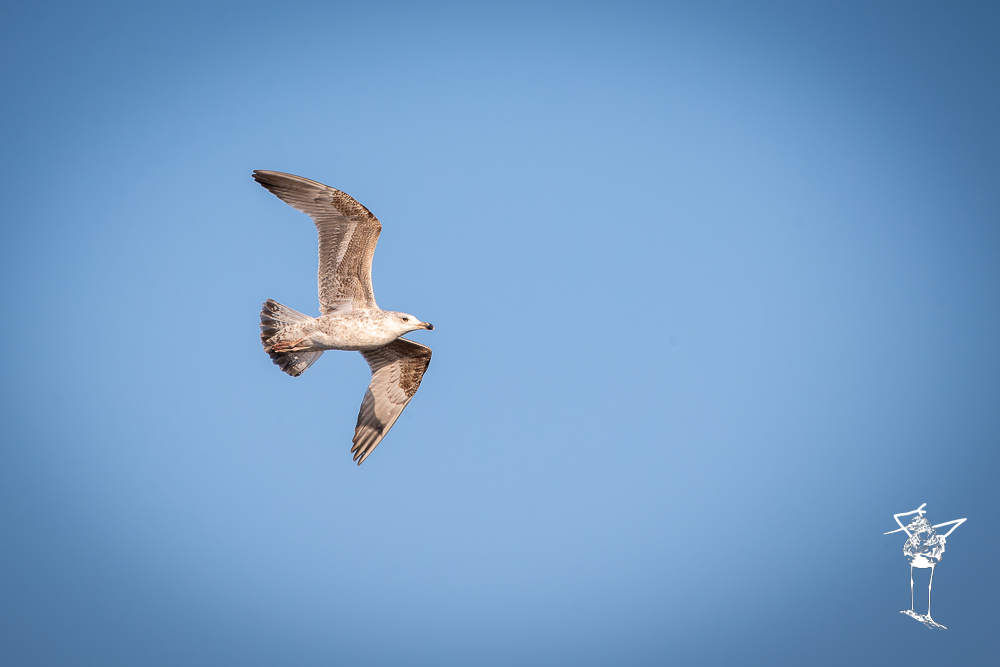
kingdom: Animalia
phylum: Chordata
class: Aves
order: Charadriiformes
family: Laridae
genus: Larus
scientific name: Larus argentatus
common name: Herring gull
